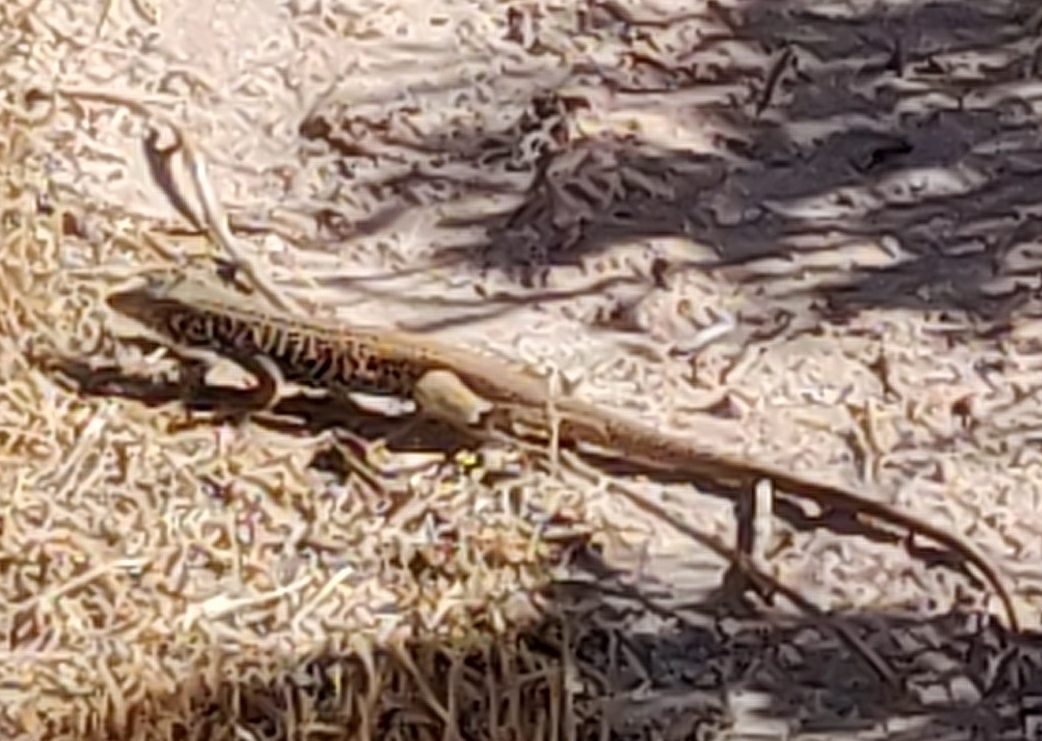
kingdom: Animalia
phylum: Chordata
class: Squamata
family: Teiidae
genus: Aspidoscelis
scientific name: Aspidoscelis tigris
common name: Tiger whiptail
